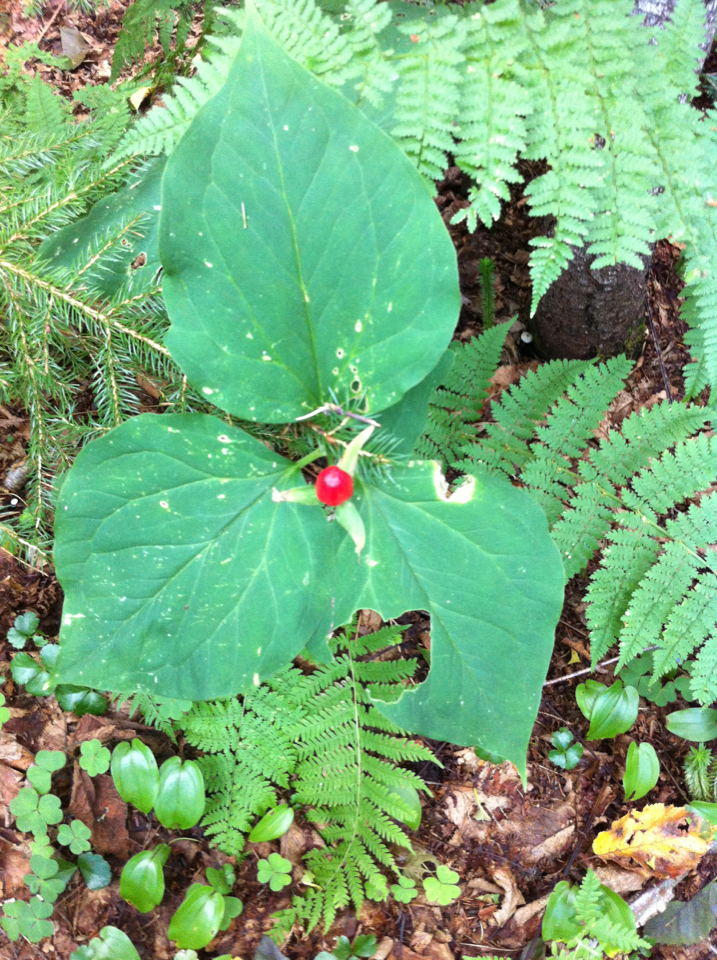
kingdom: Plantae
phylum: Tracheophyta
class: Liliopsida
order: Liliales
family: Melanthiaceae
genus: Trillium
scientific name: Trillium undulatum
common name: Paint trillium
